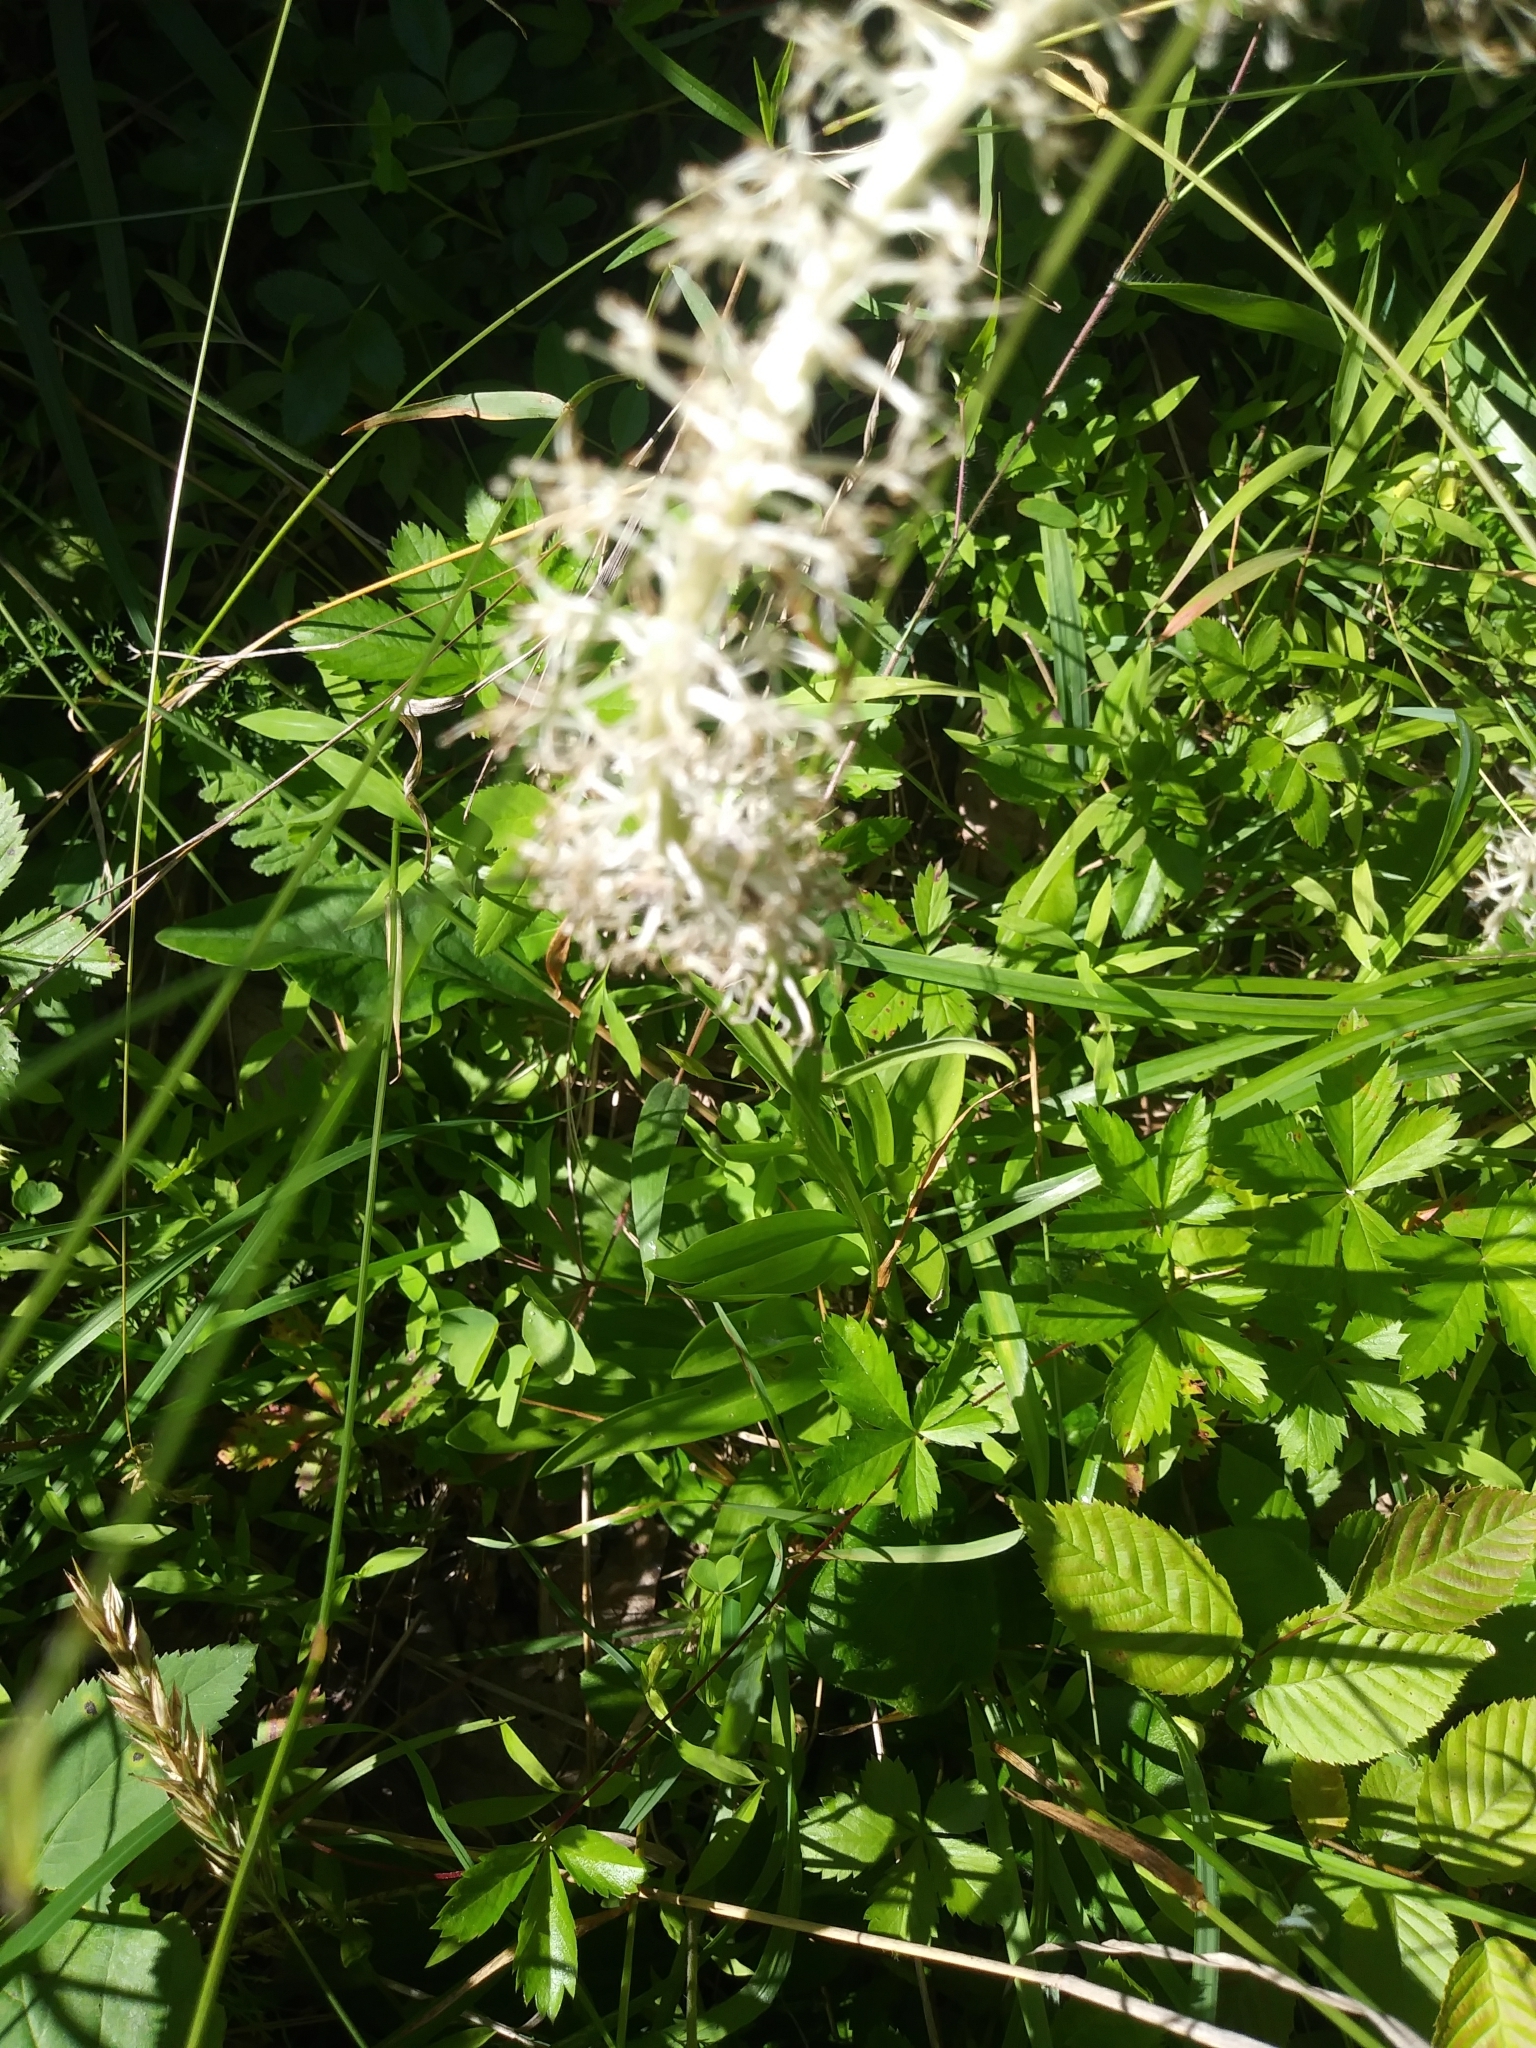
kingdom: Plantae
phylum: Tracheophyta
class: Liliopsida
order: Liliales
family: Melanthiaceae
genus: Chamaelirium
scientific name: Chamaelirium luteum
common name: Fairy-wand
